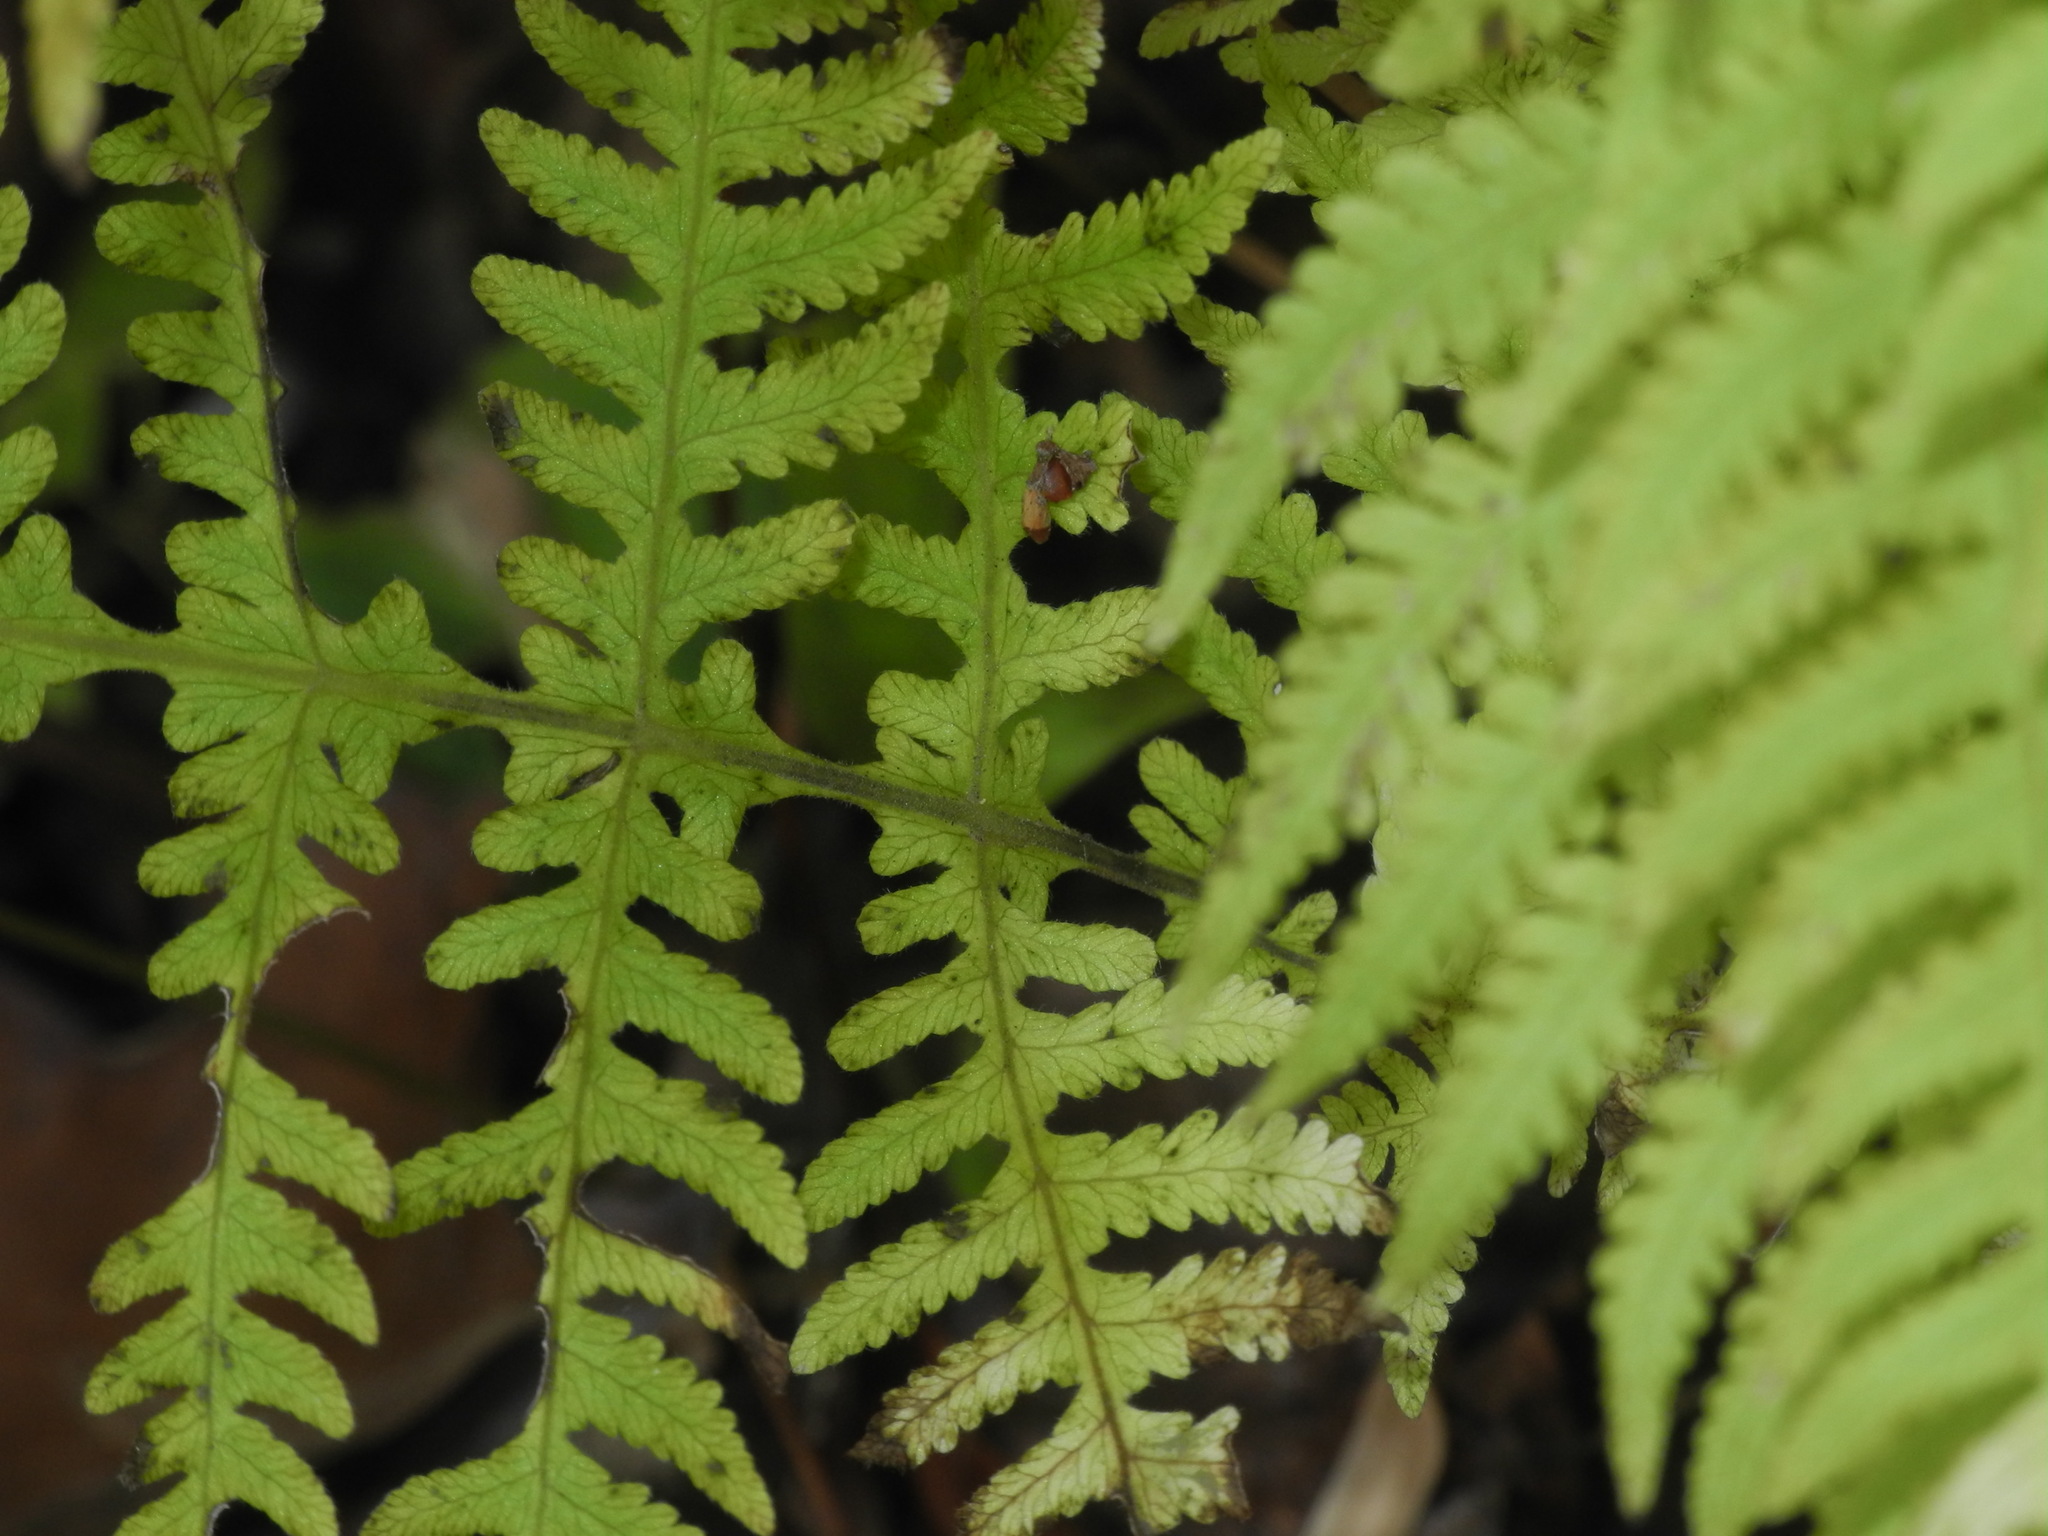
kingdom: Plantae
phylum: Tracheophyta
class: Polypodiopsida
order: Polypodiales
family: Thelypteridaceae
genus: Phegopteris
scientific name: Phegopteris hexagonoptera
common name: Broad beech fern
